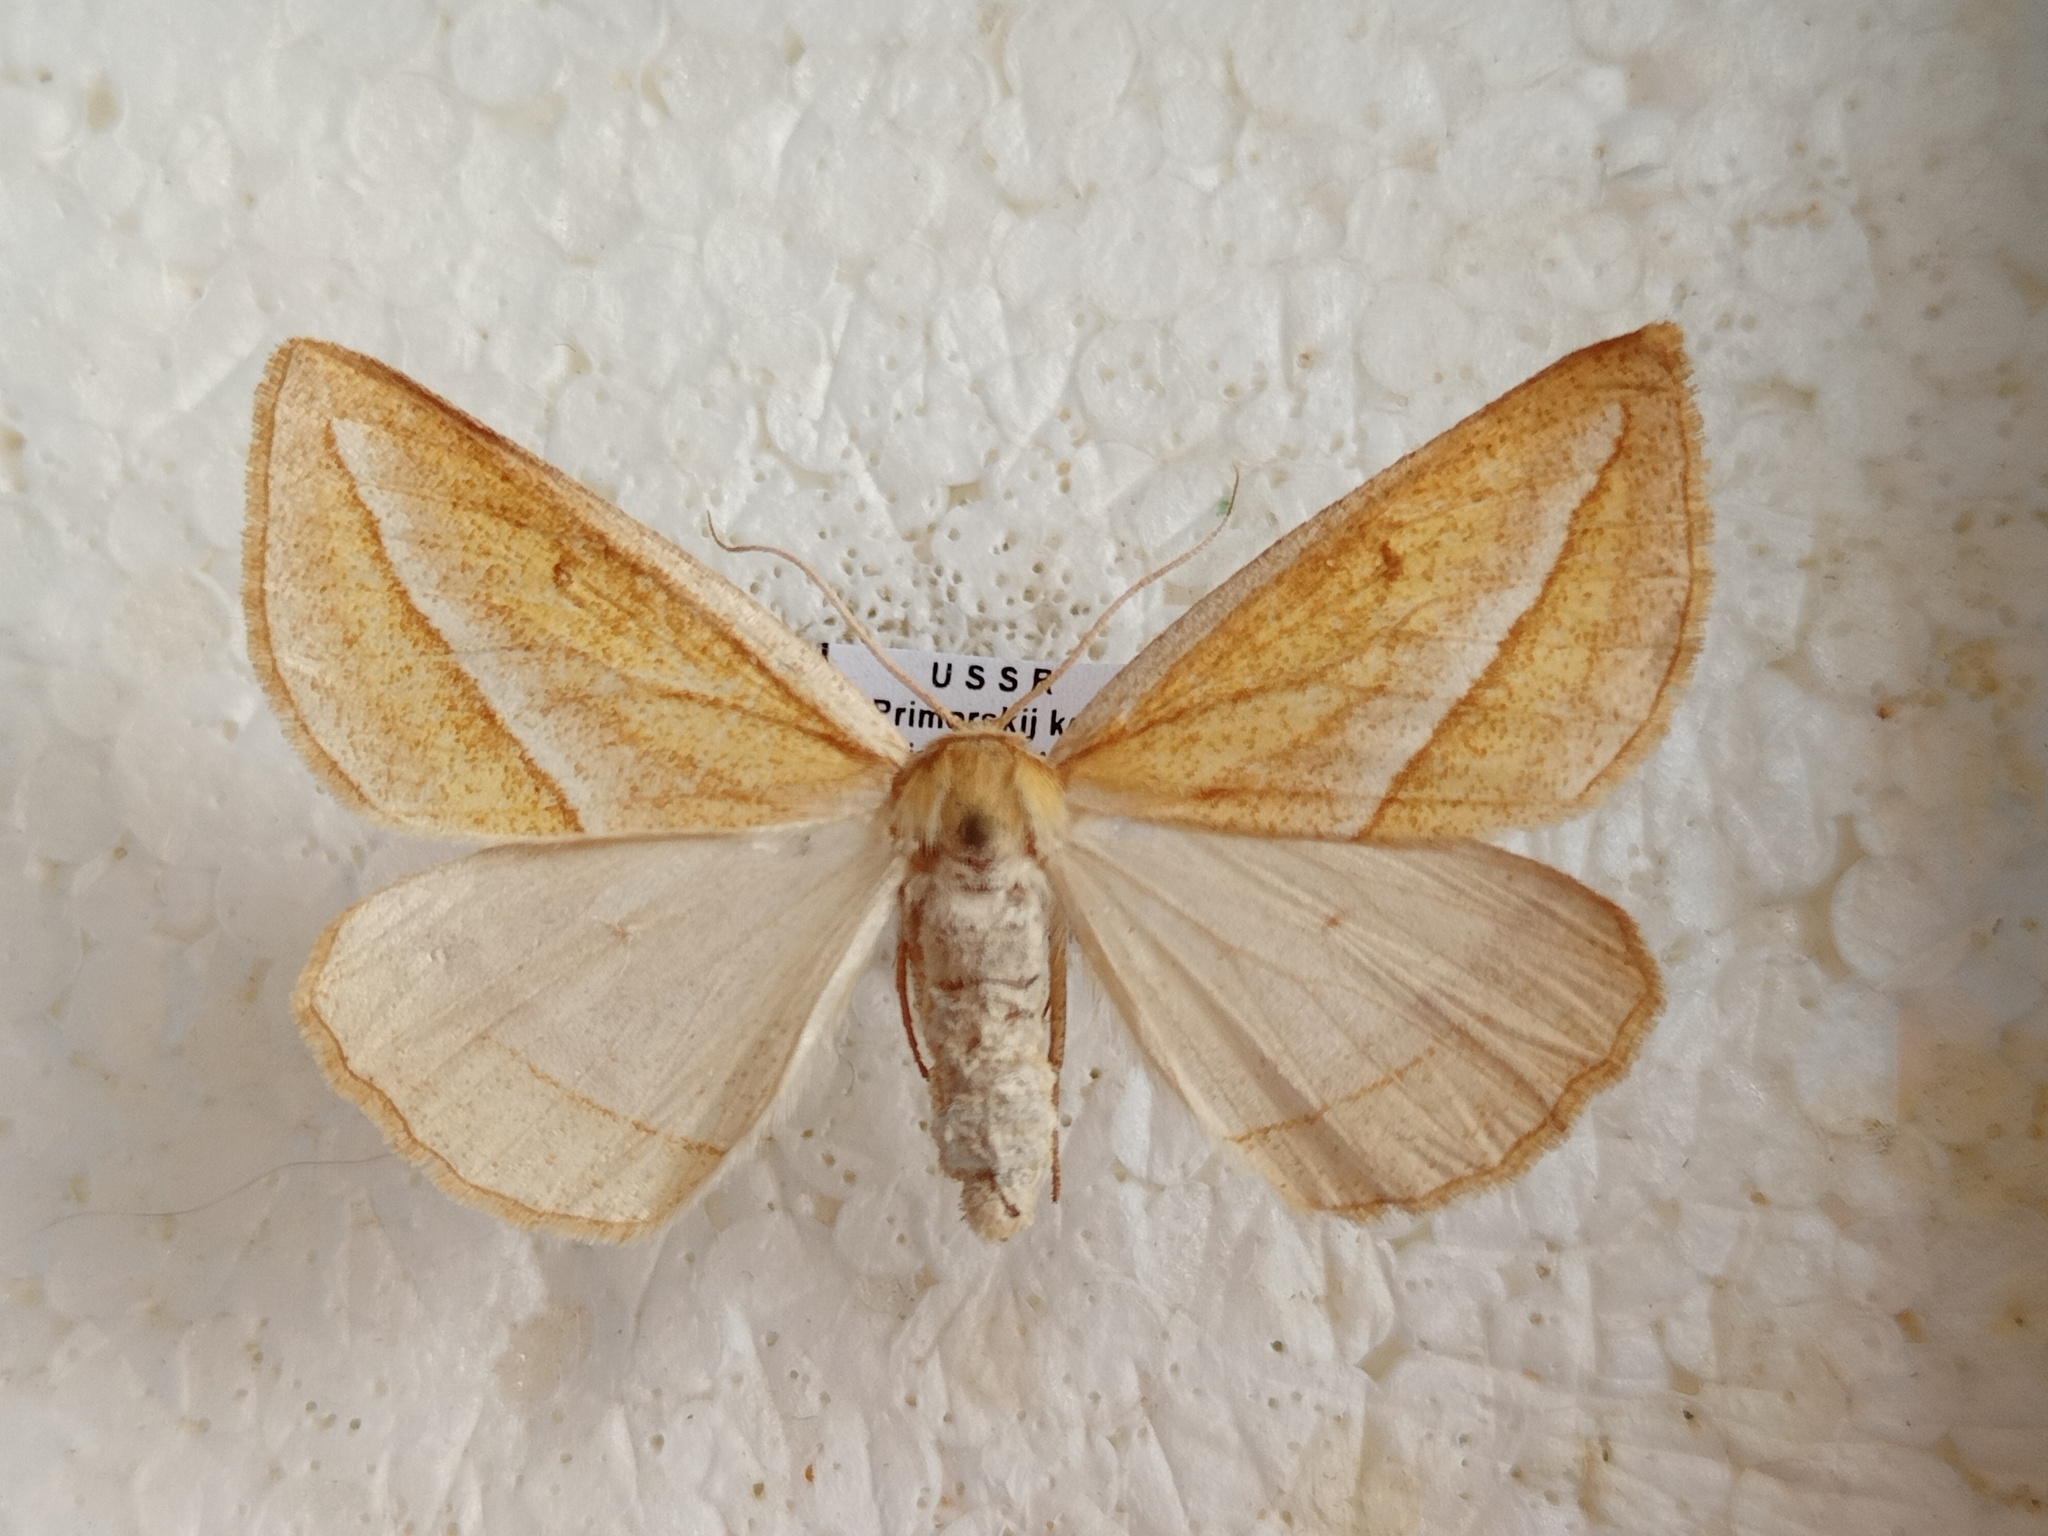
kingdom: Animalia
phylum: Arthropoda
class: Insecta
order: Lepidoptera
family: Geometridae
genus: Chariaspilates
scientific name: Chariaspilates formosaria
